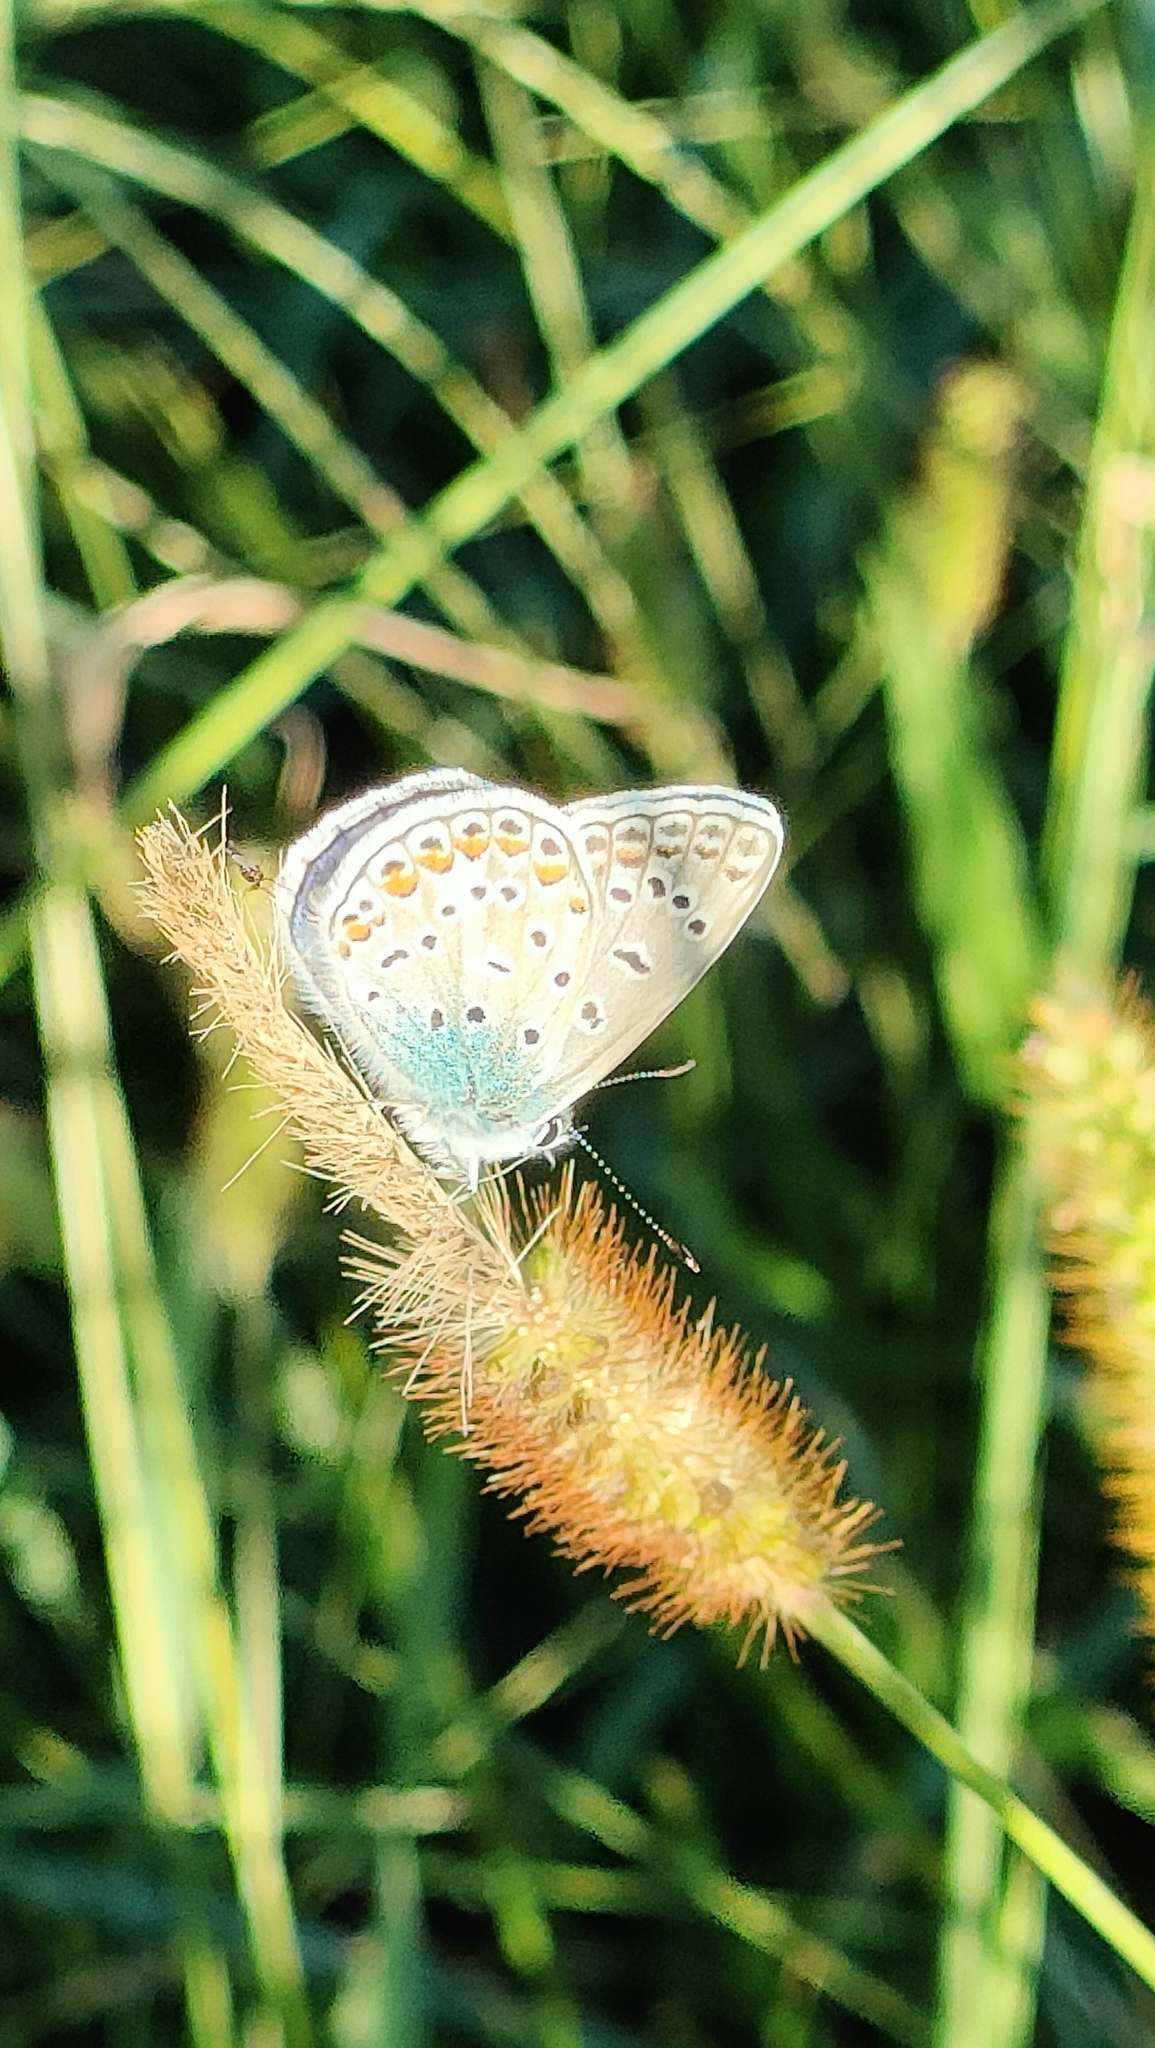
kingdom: Animalia
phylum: Arthropoda
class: Insecta
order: Lepidoptera
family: Lycaenidae
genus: Polyommatus
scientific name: Polyommatus icarus
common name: Common blue
